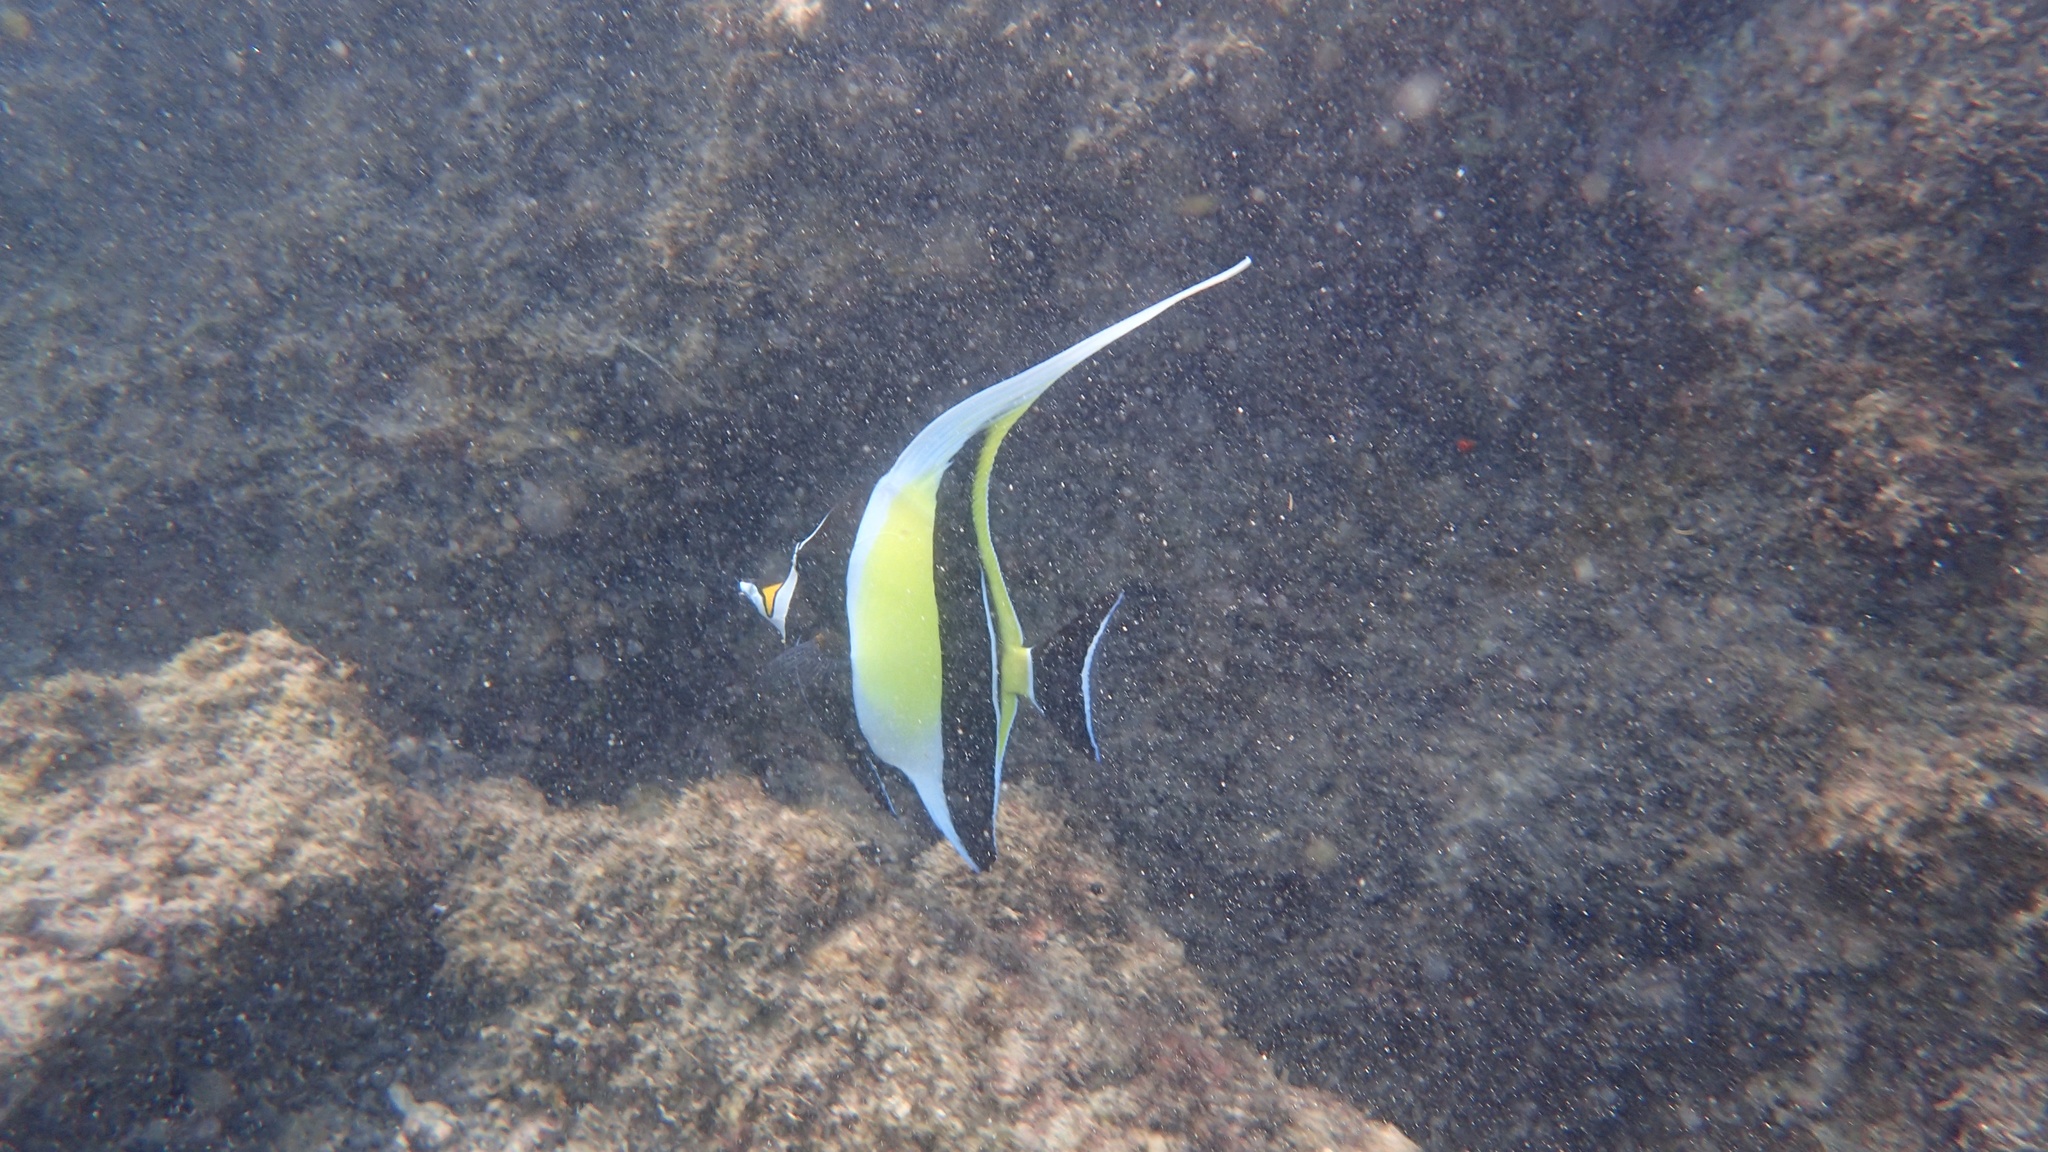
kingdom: Animalia
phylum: Chordata
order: Perciformes
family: Zanclidae
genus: Zanclus
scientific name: Zanclus cornutus
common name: Moorish idol
